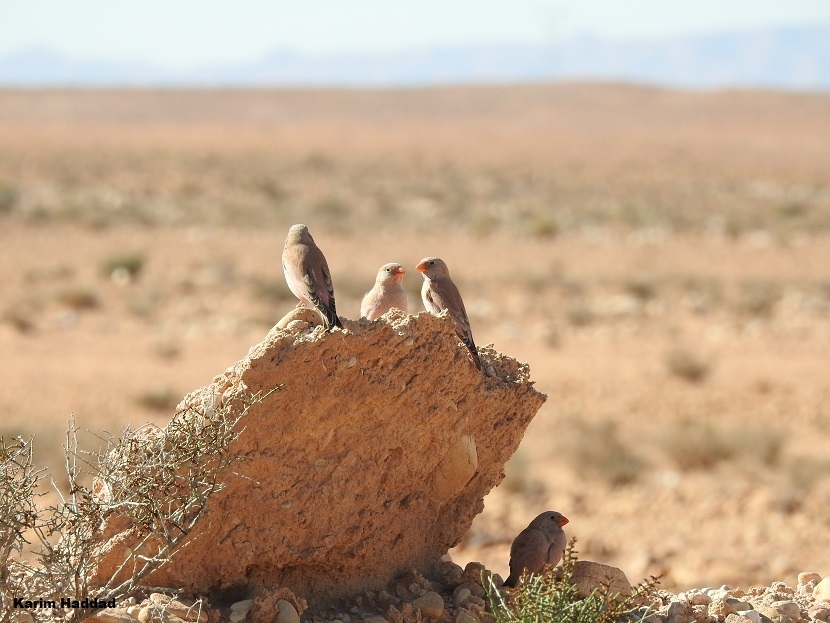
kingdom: Animalia
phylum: Chordata
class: Aves
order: Passeriformes
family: Fringillidae
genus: Bucanetes
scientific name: Bucanetes githagineus
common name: Trumpeter finch
